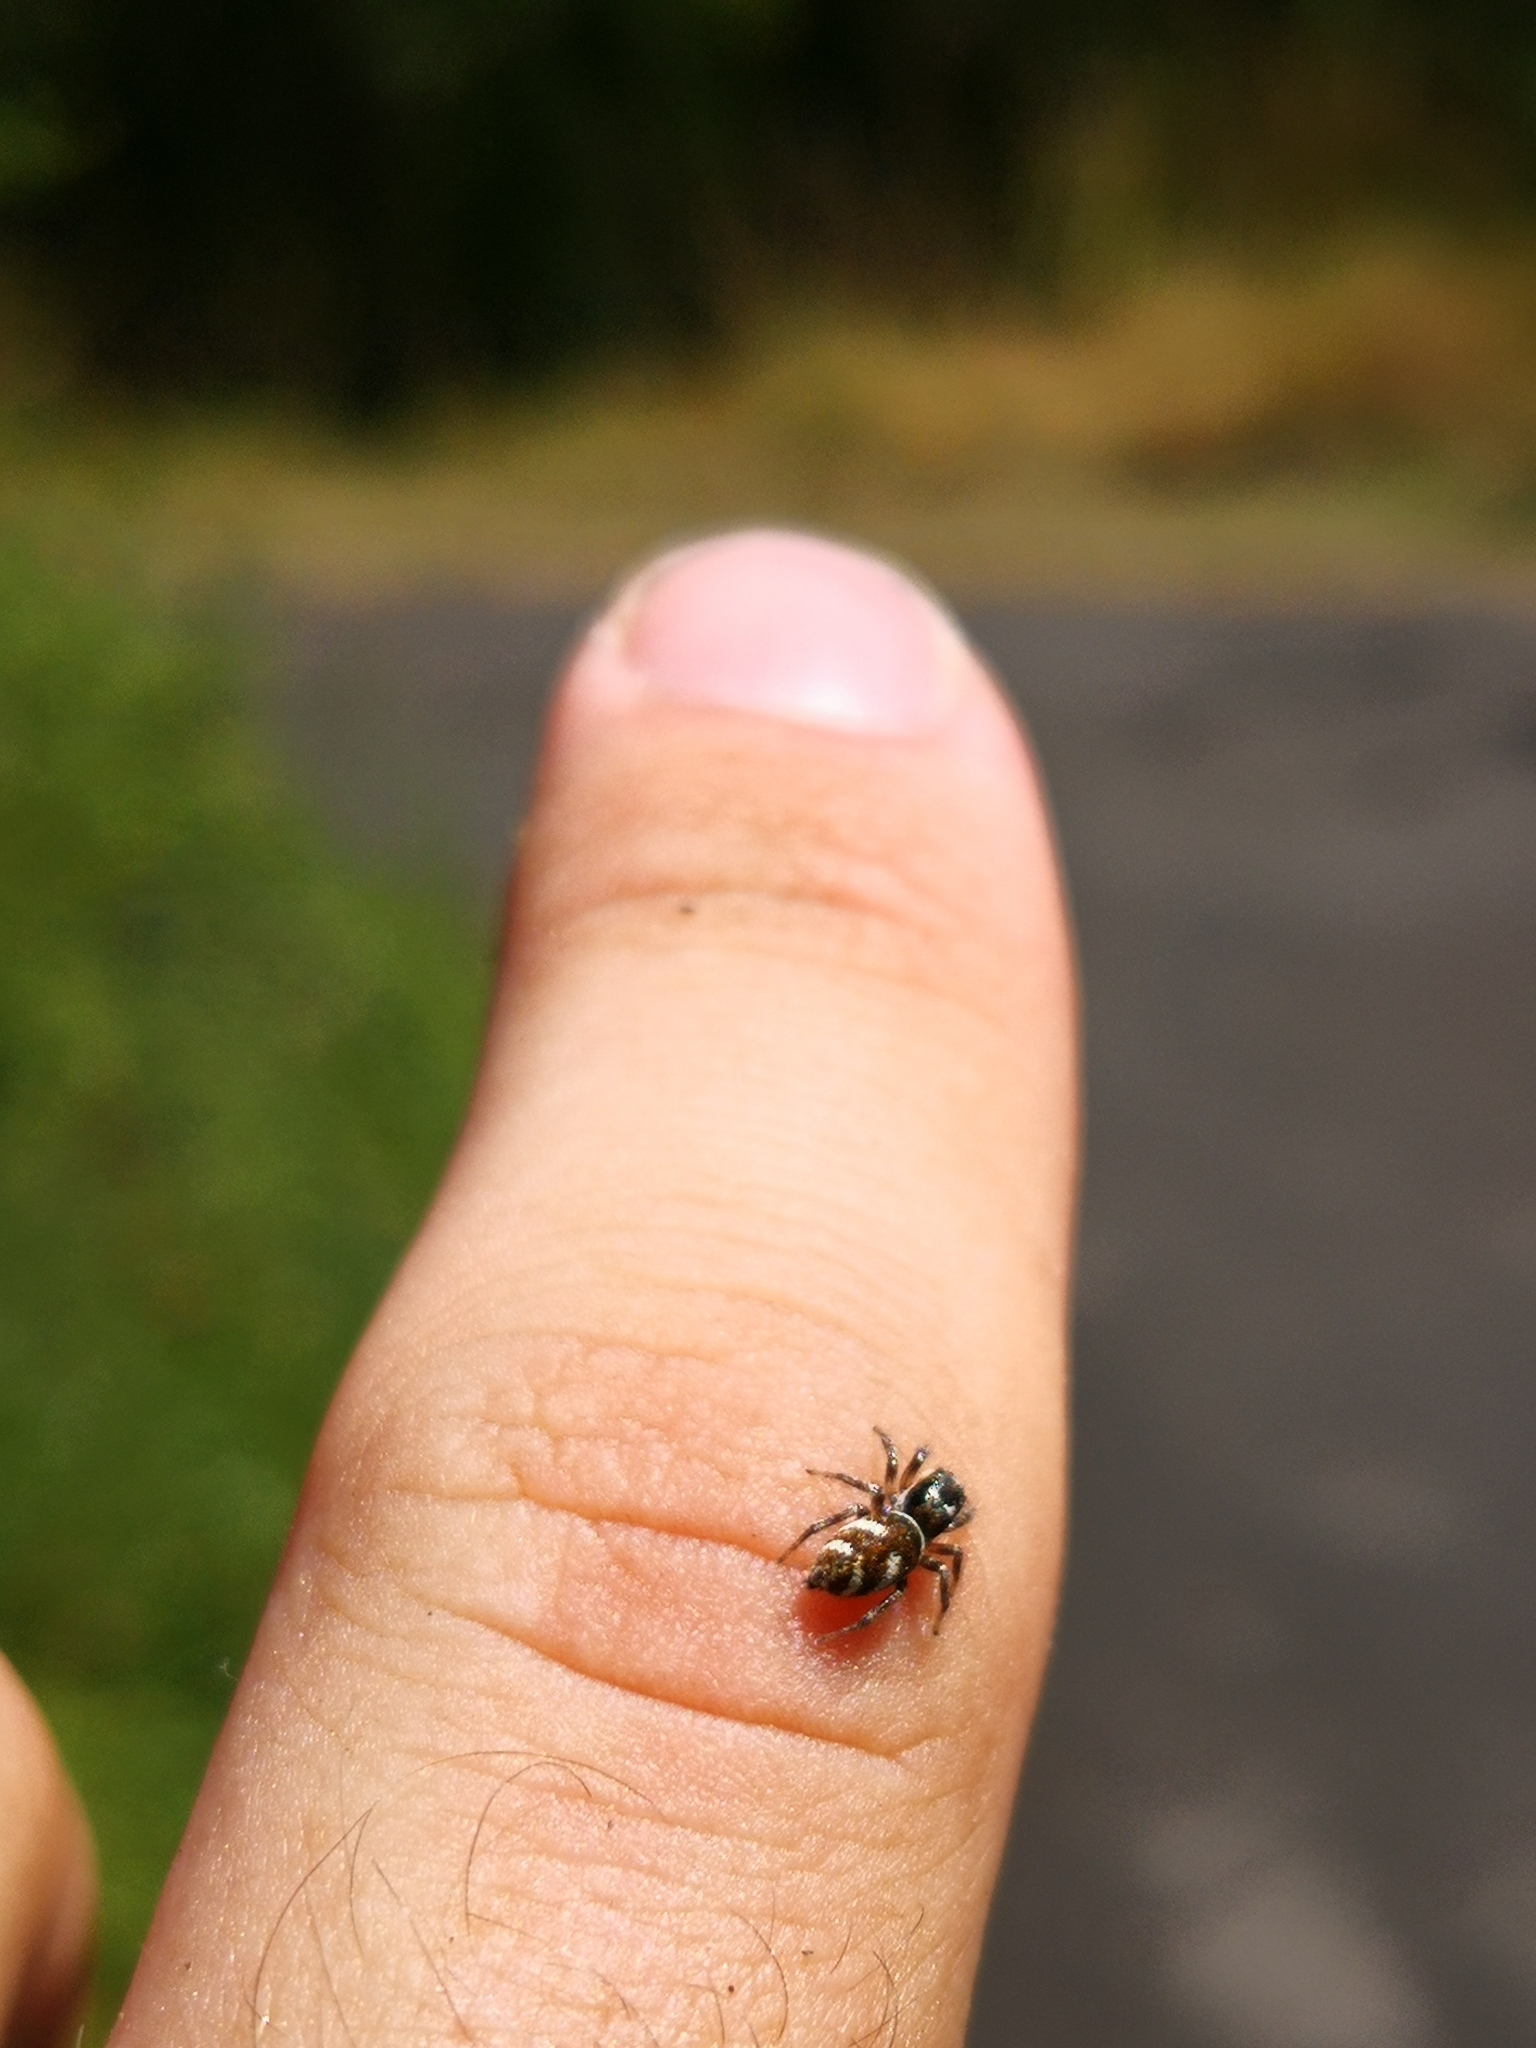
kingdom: Animalia
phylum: Arthropoda
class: Arachnida
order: Araneae
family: Salticidae
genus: Salticus
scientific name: Salticus scenicus
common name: Zebra jumper
